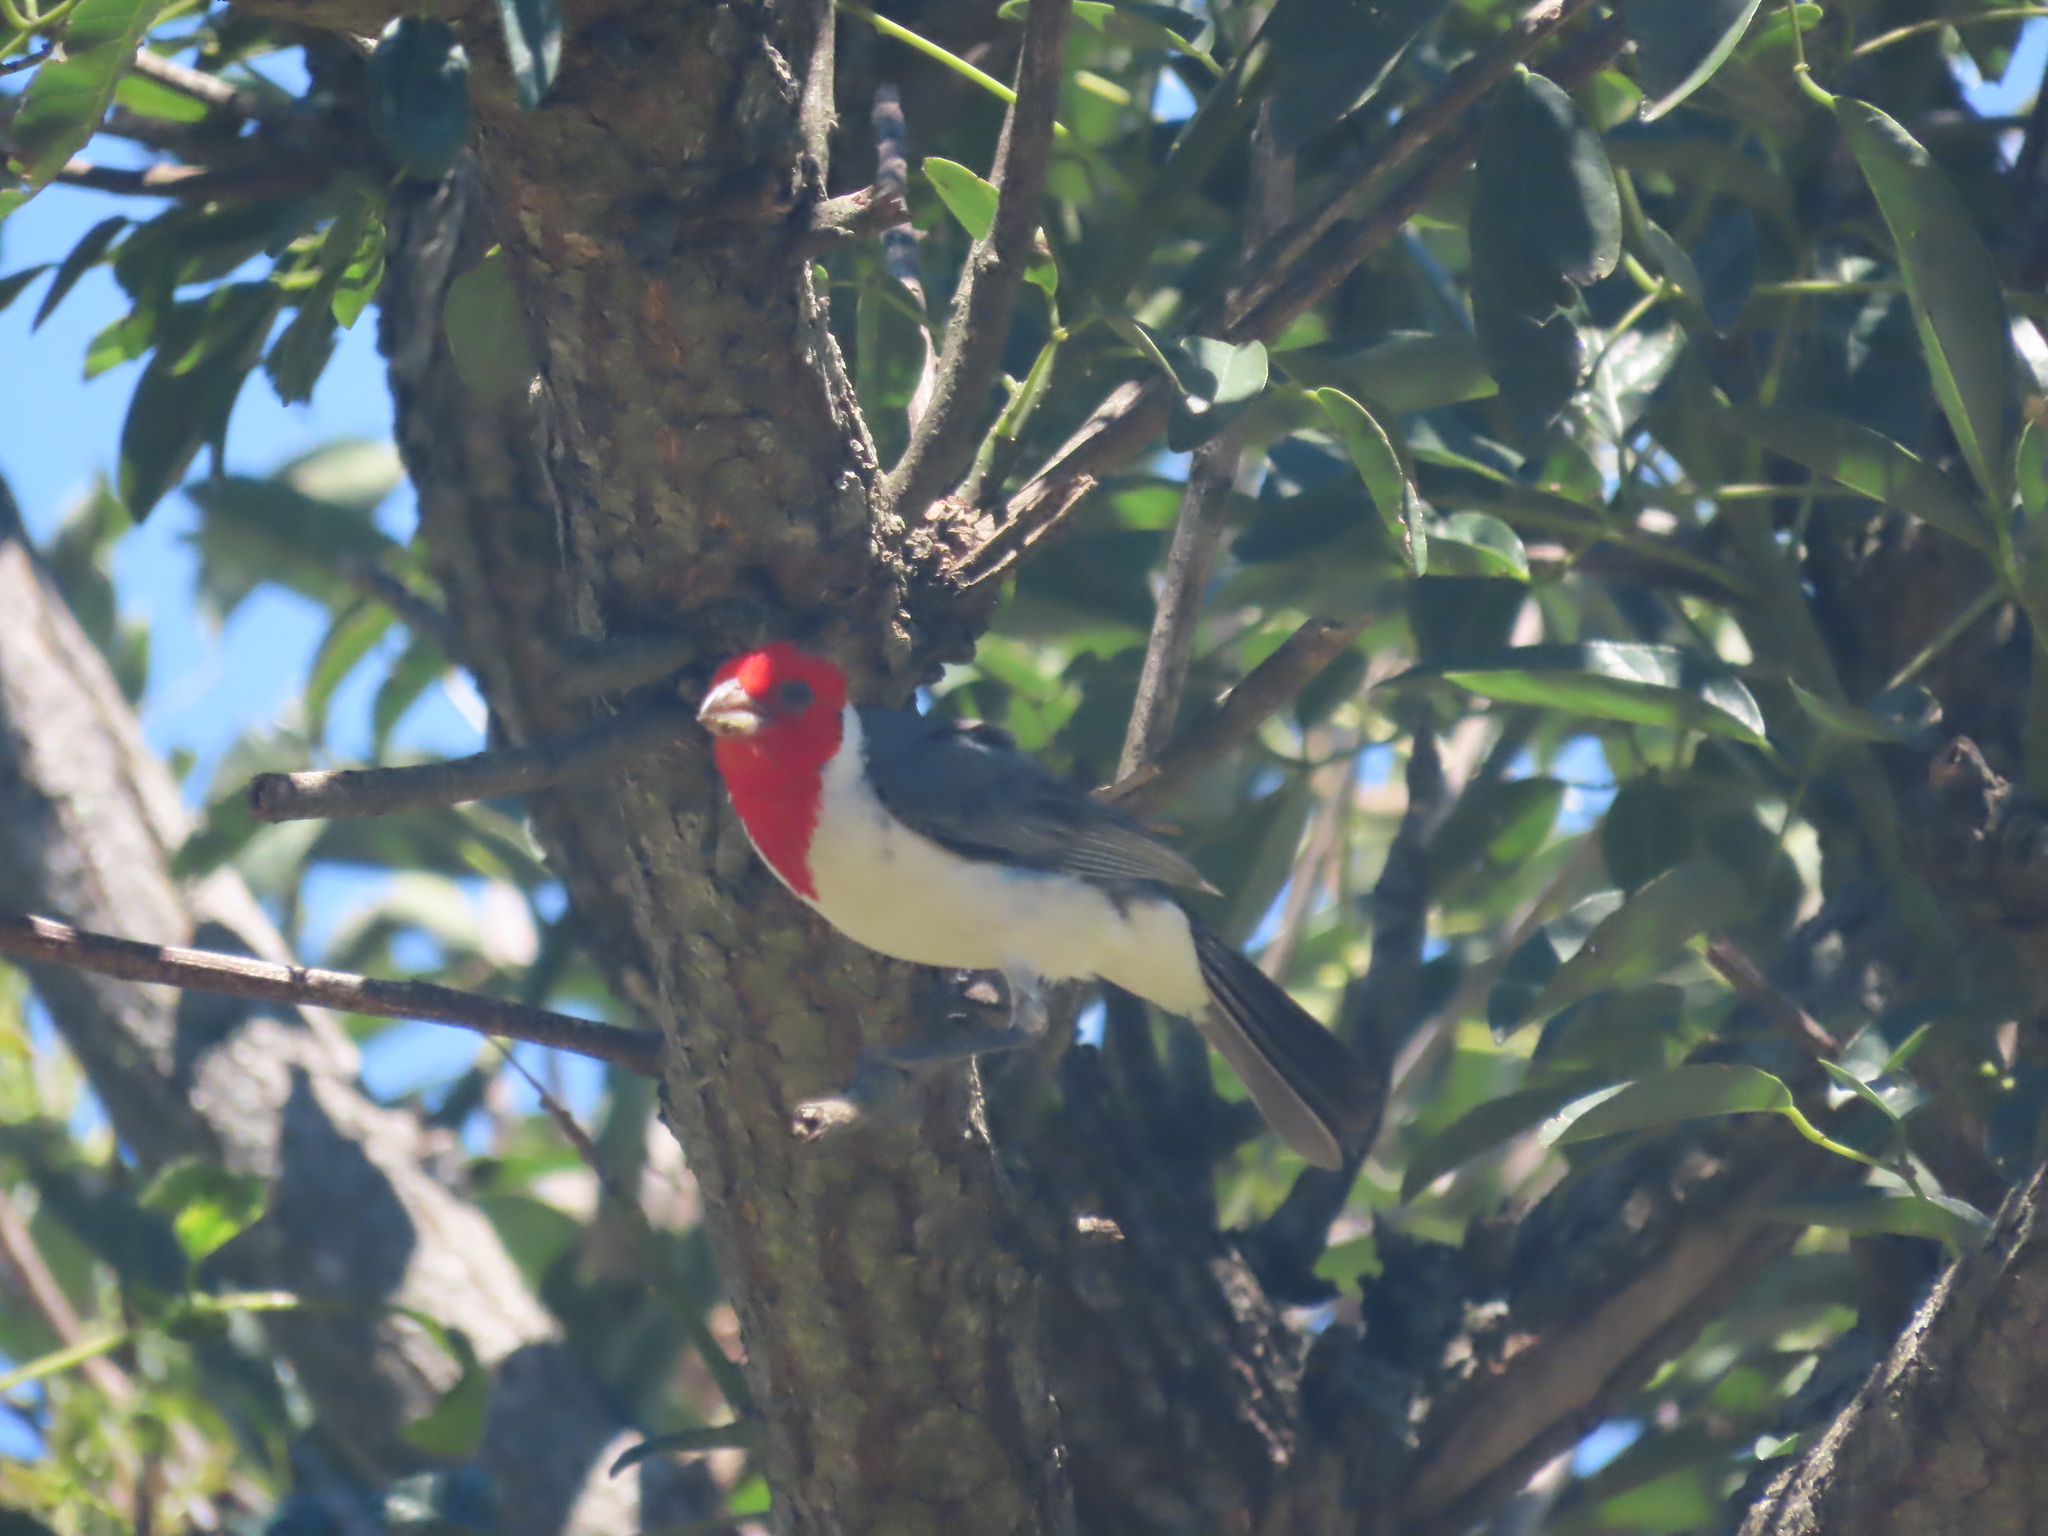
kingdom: Animalia
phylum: Chordata
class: Aves
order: Passeriformes
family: Thraupidae
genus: Paroaria
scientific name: Paroaria coronata
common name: Red-crested cardinal
